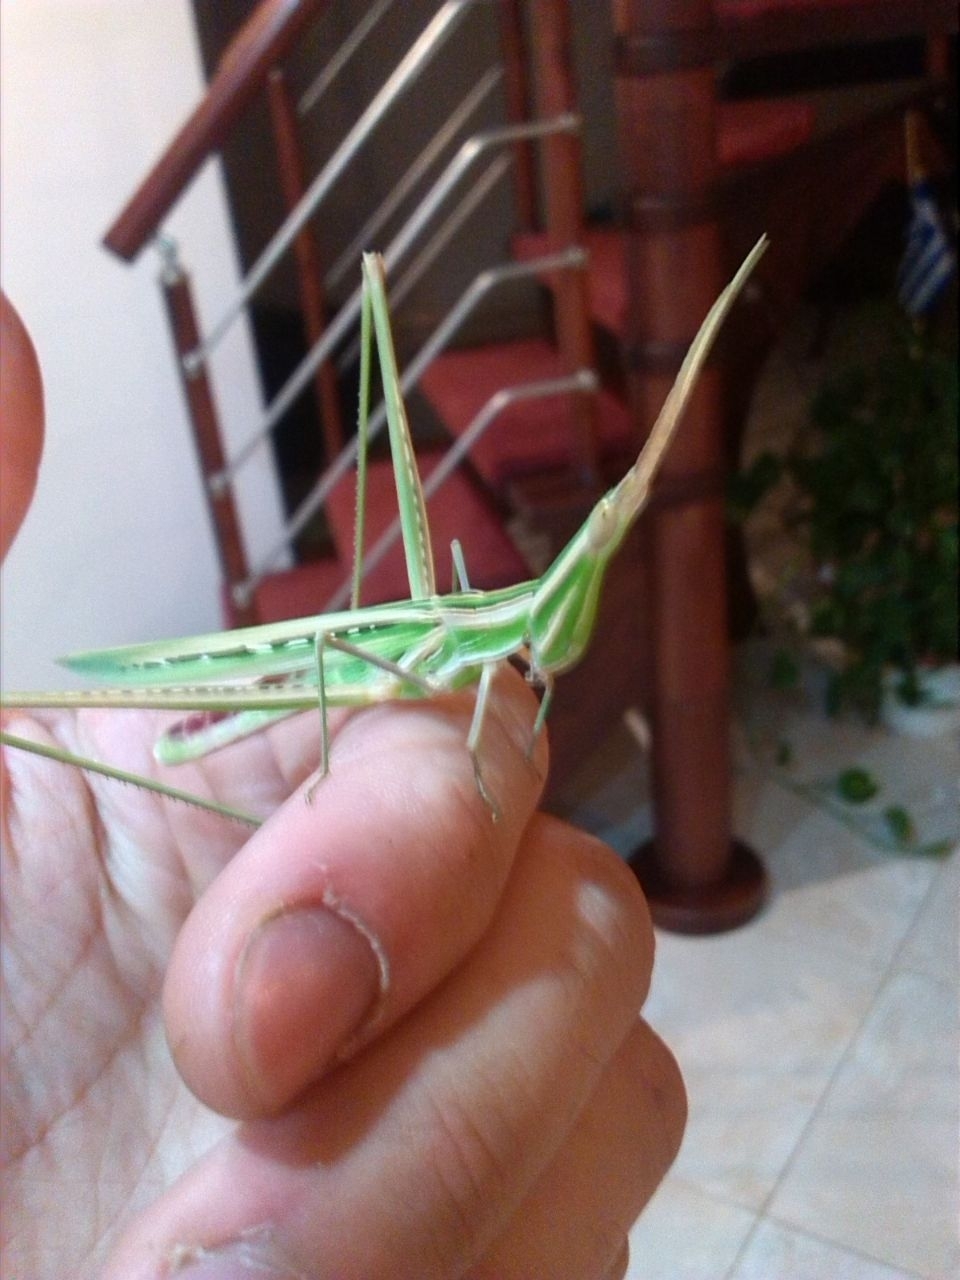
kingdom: Animalia
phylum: Arthropoda
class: Insecta
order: Orthoptera
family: Acrididae
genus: Acrida
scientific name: Acrida ungarica
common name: Common cone-headed grasshopper
